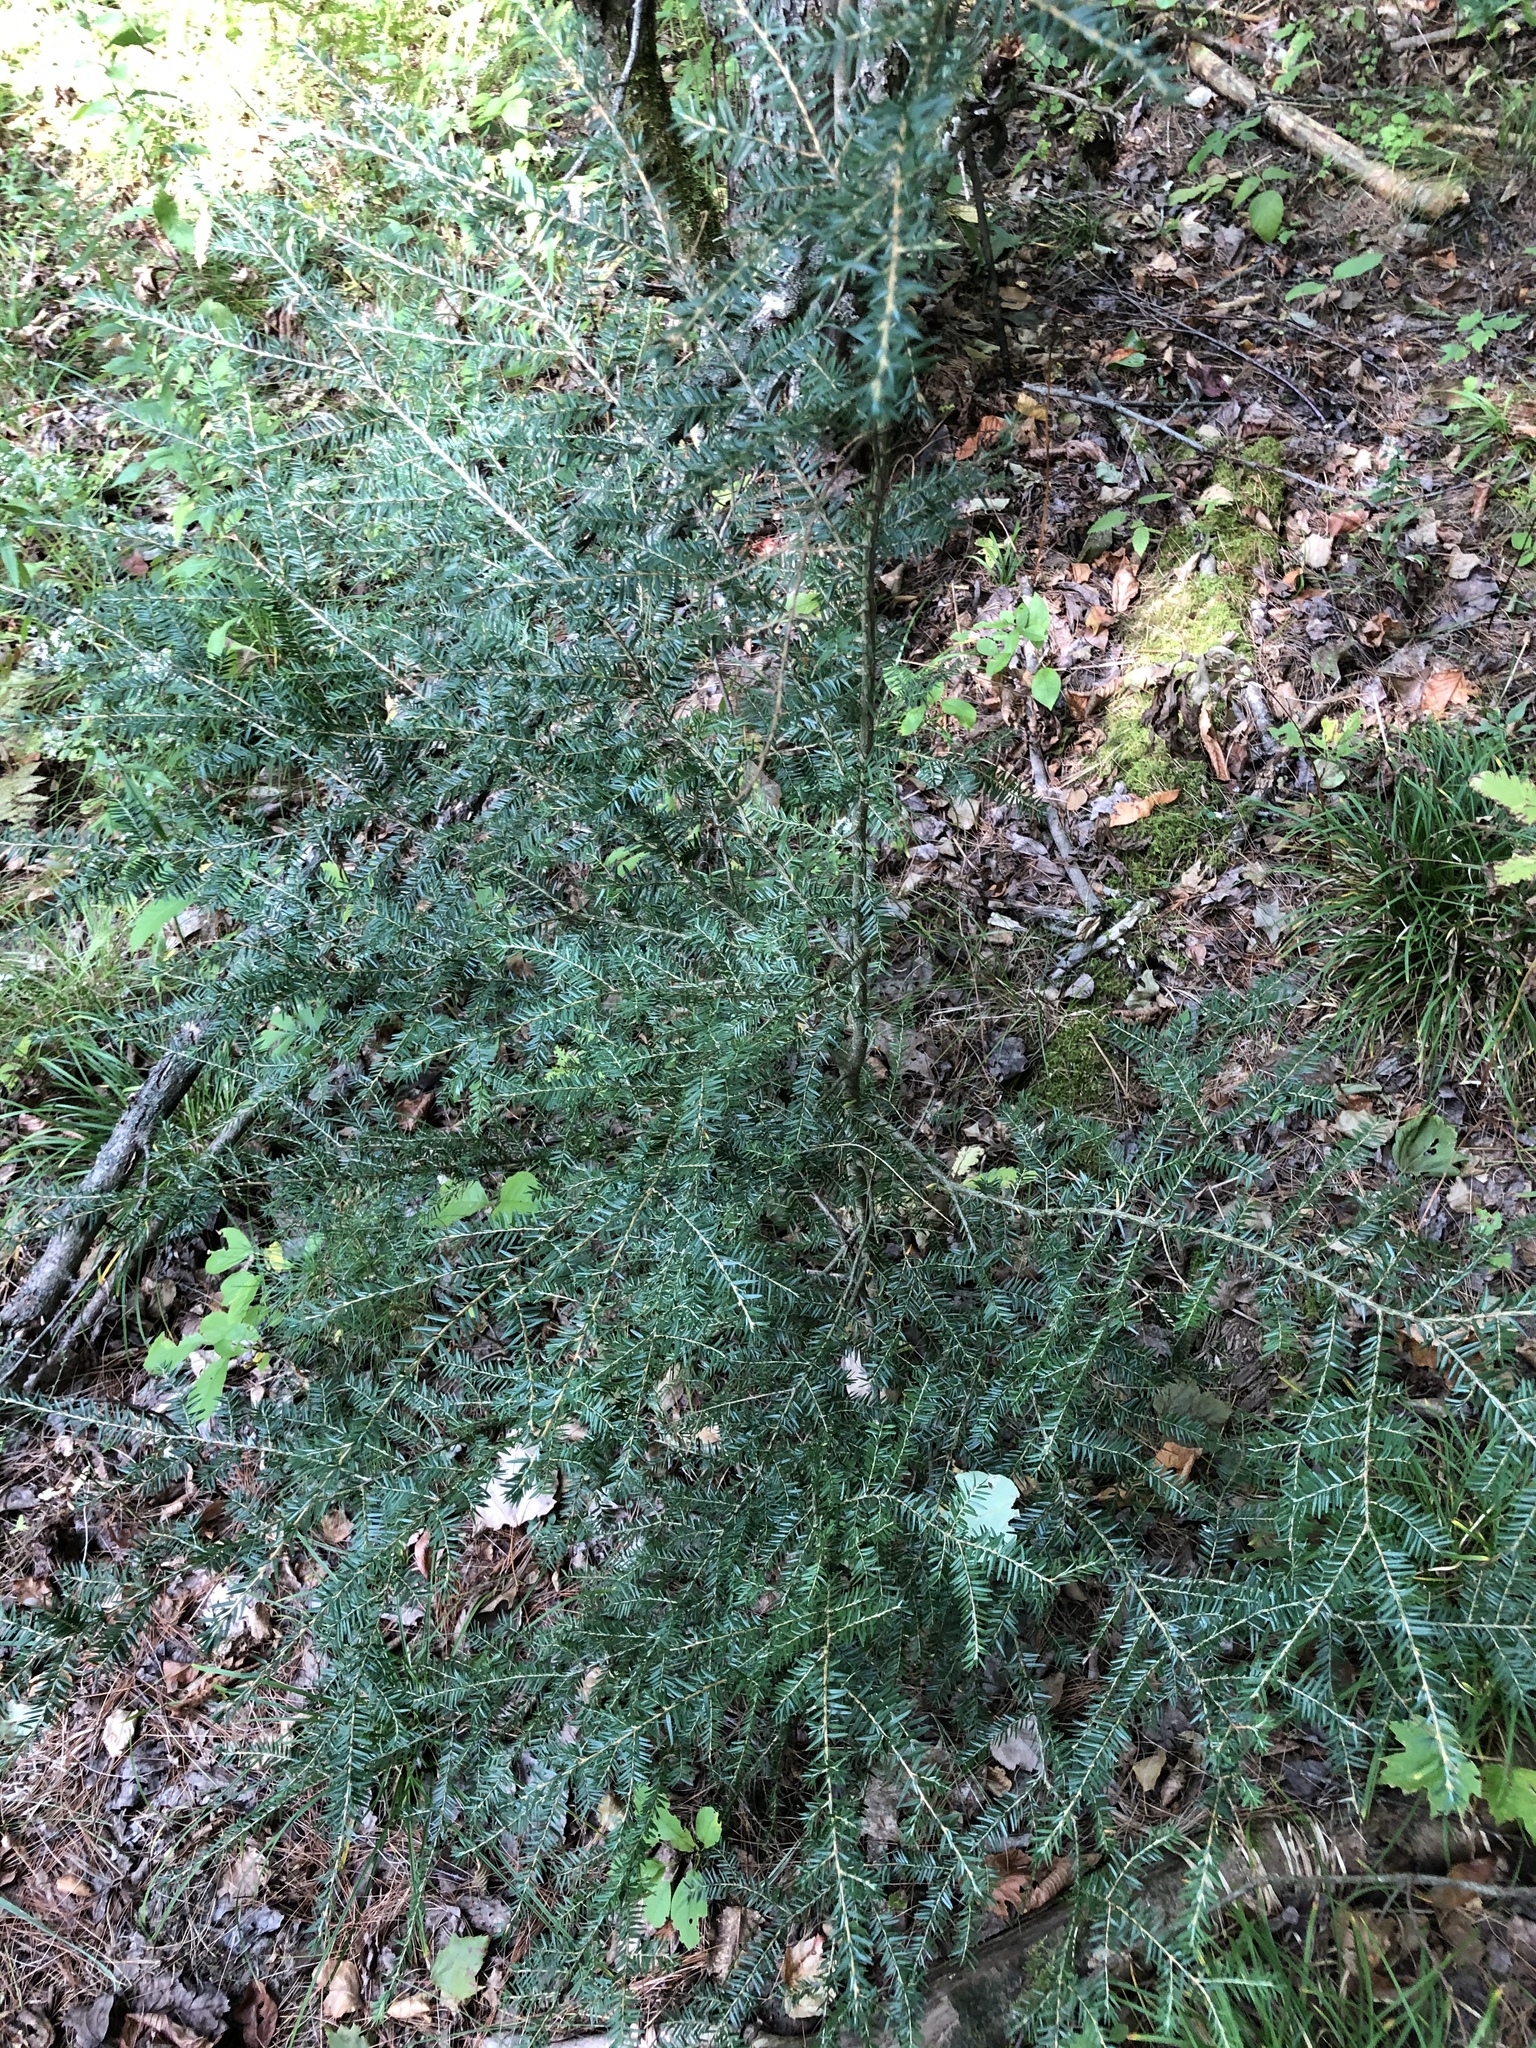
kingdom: Plantae
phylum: Tracheophyta
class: Pinopsida
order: Pinales
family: Pinaceae
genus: Tsuga
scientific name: Tsuga canadensis
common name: Eastern hemlock
